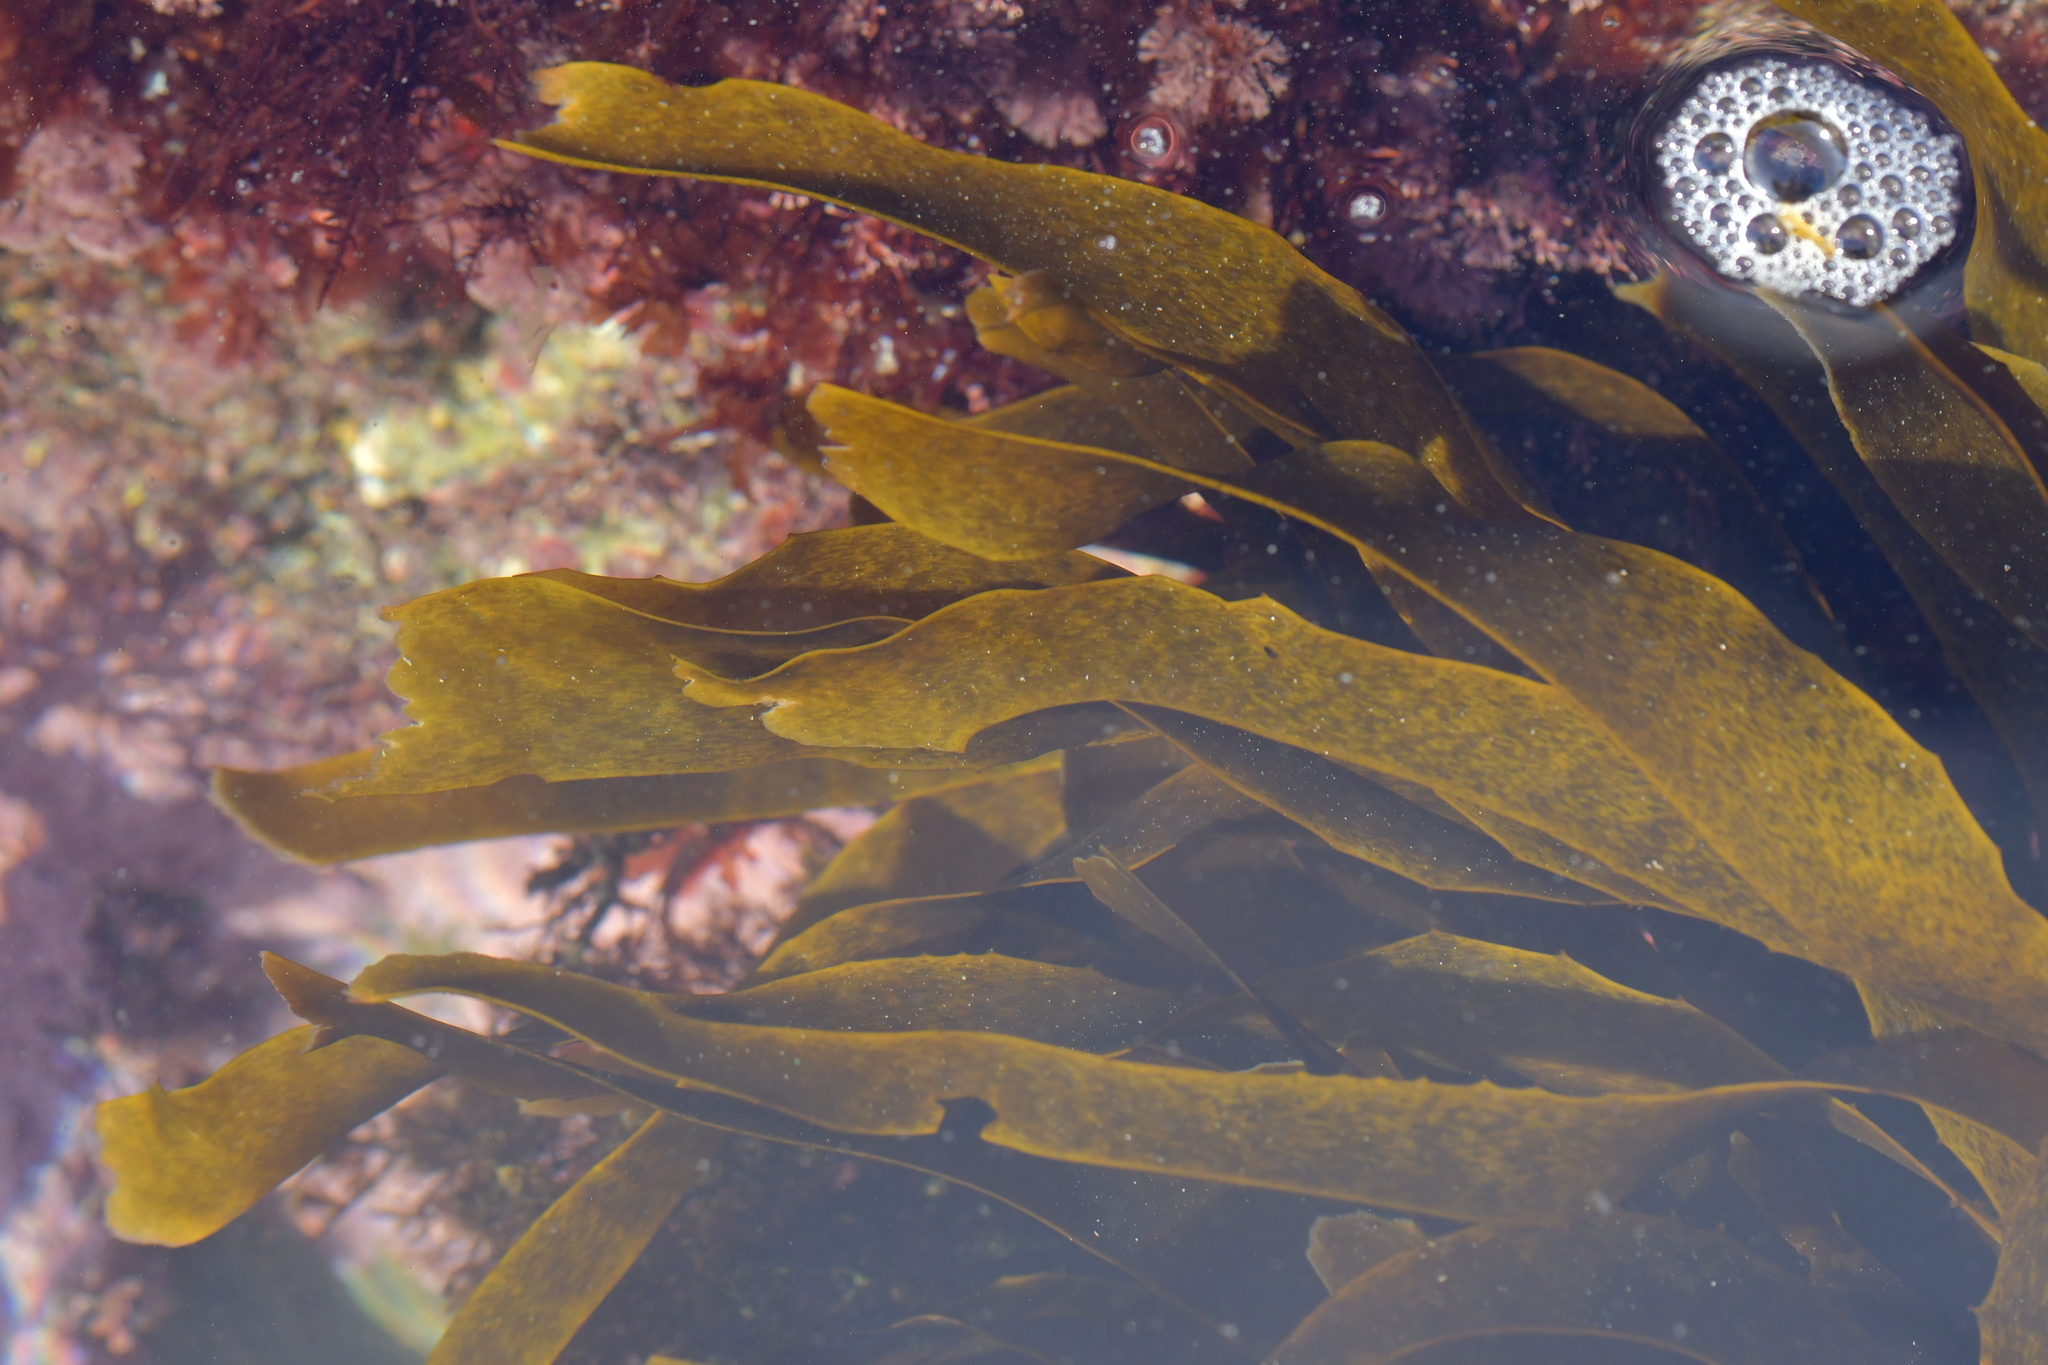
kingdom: Chromista
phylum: Ochrophyta
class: Phaeophyceae
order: Laminariales
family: Lessoniaceae
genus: Lessonia
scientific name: Lessonia variegata
